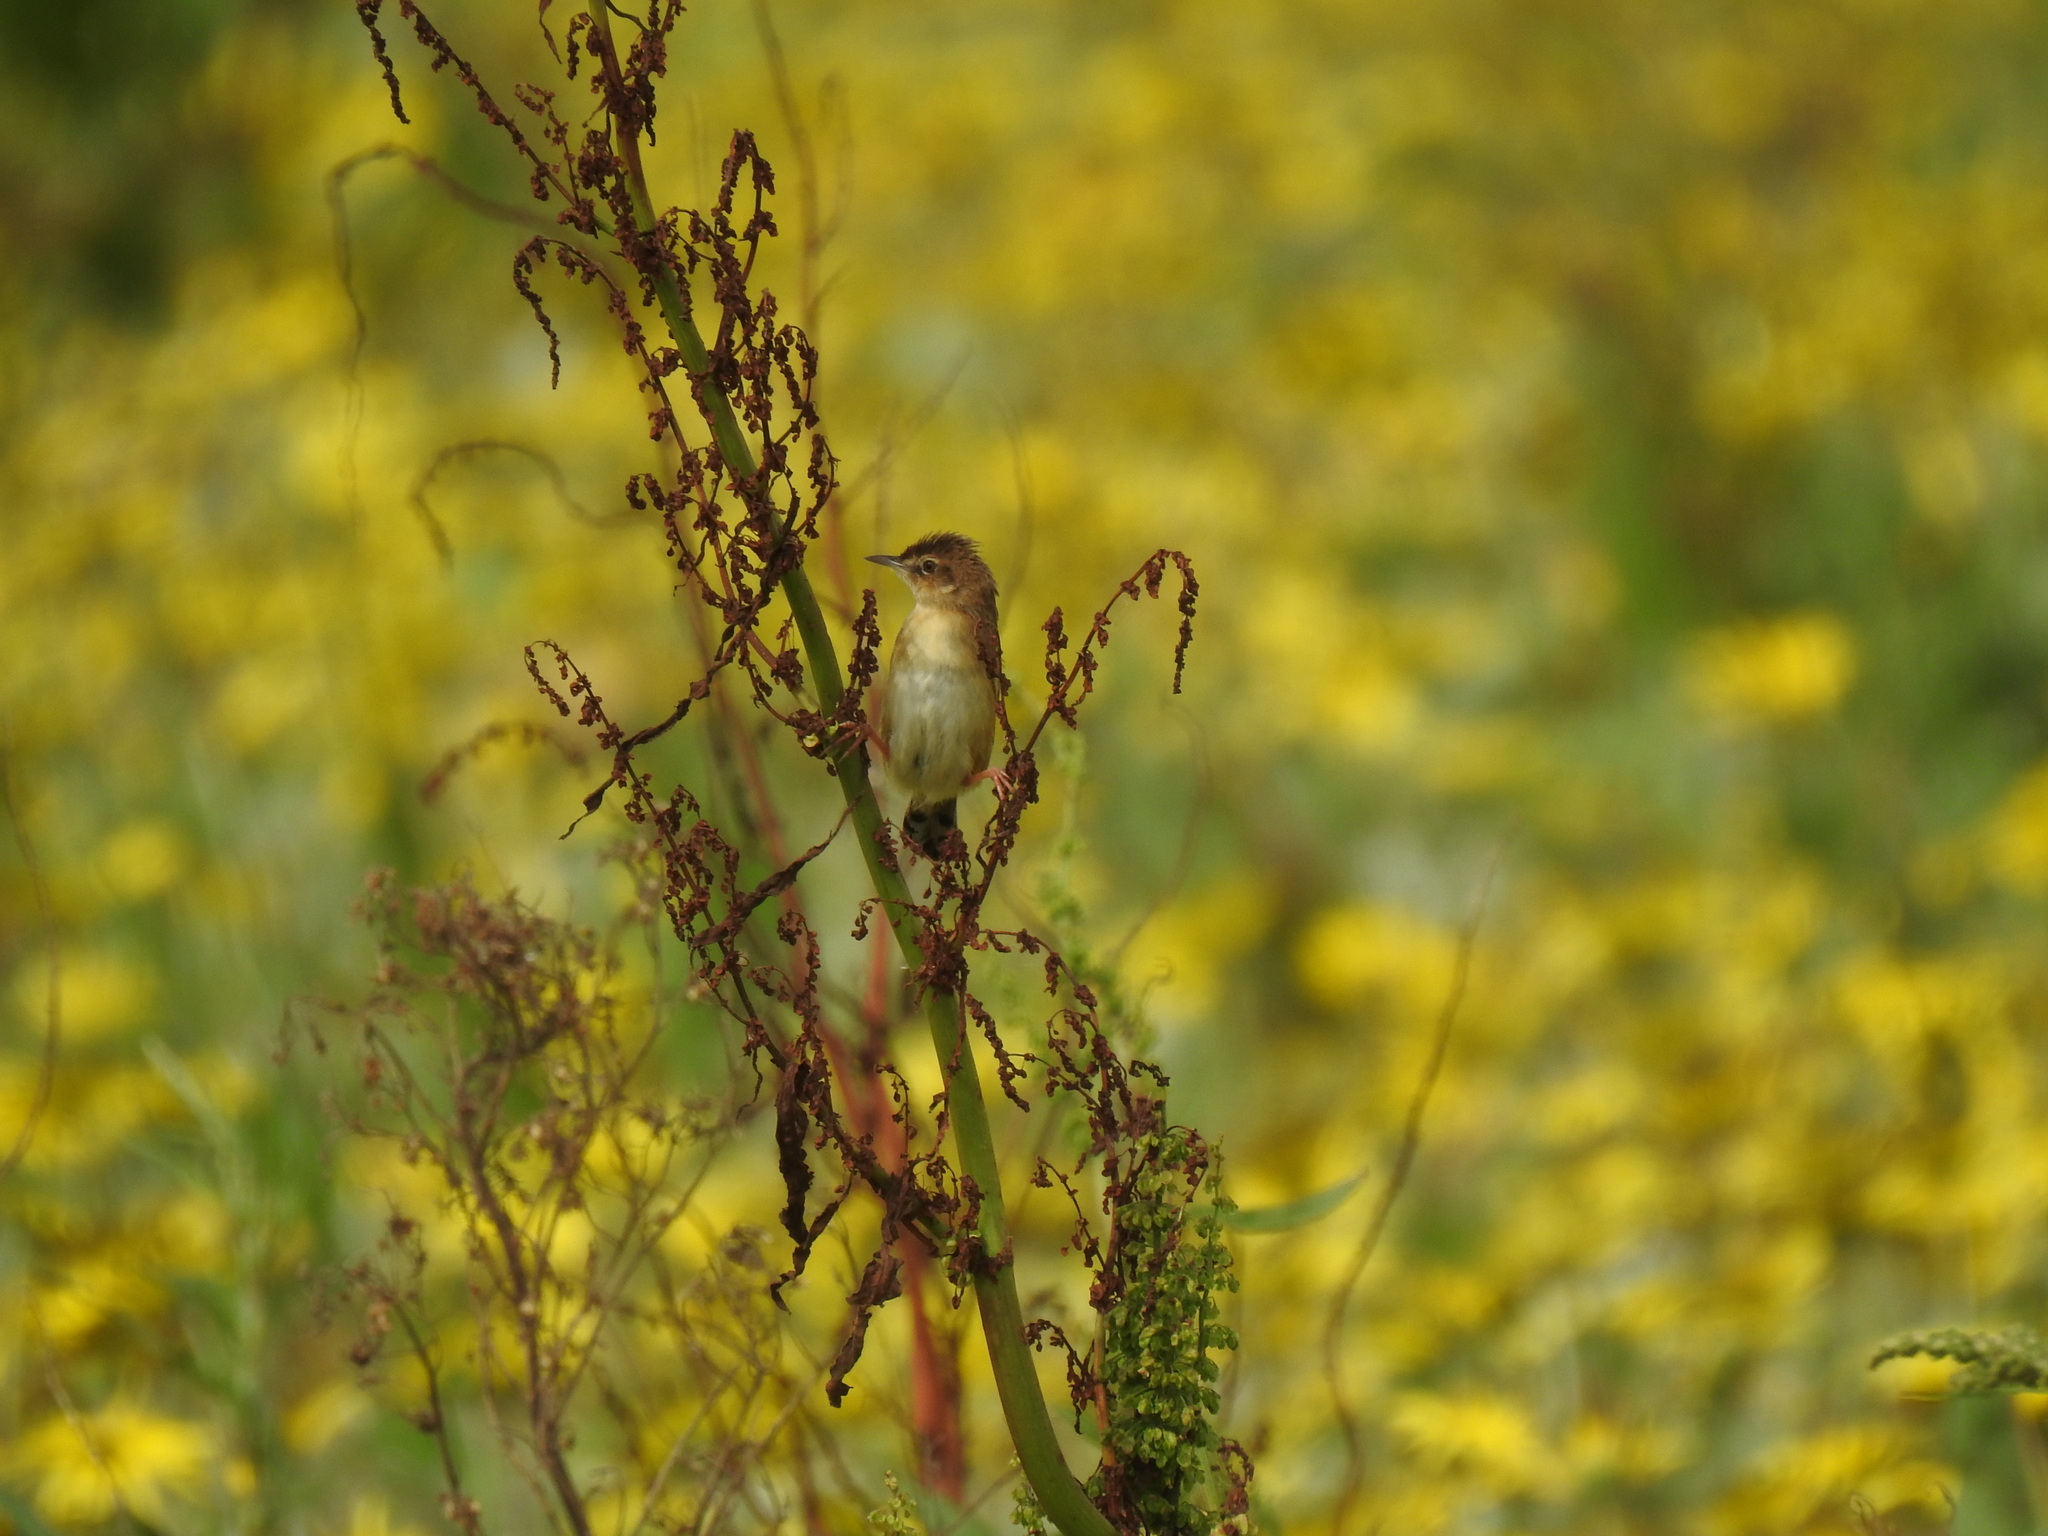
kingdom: Animalia
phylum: Chordata
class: Aves
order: Passeriformes
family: Cisticolidae
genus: Cisticola
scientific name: Cisticola juncidis
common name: Zitting cisticola
